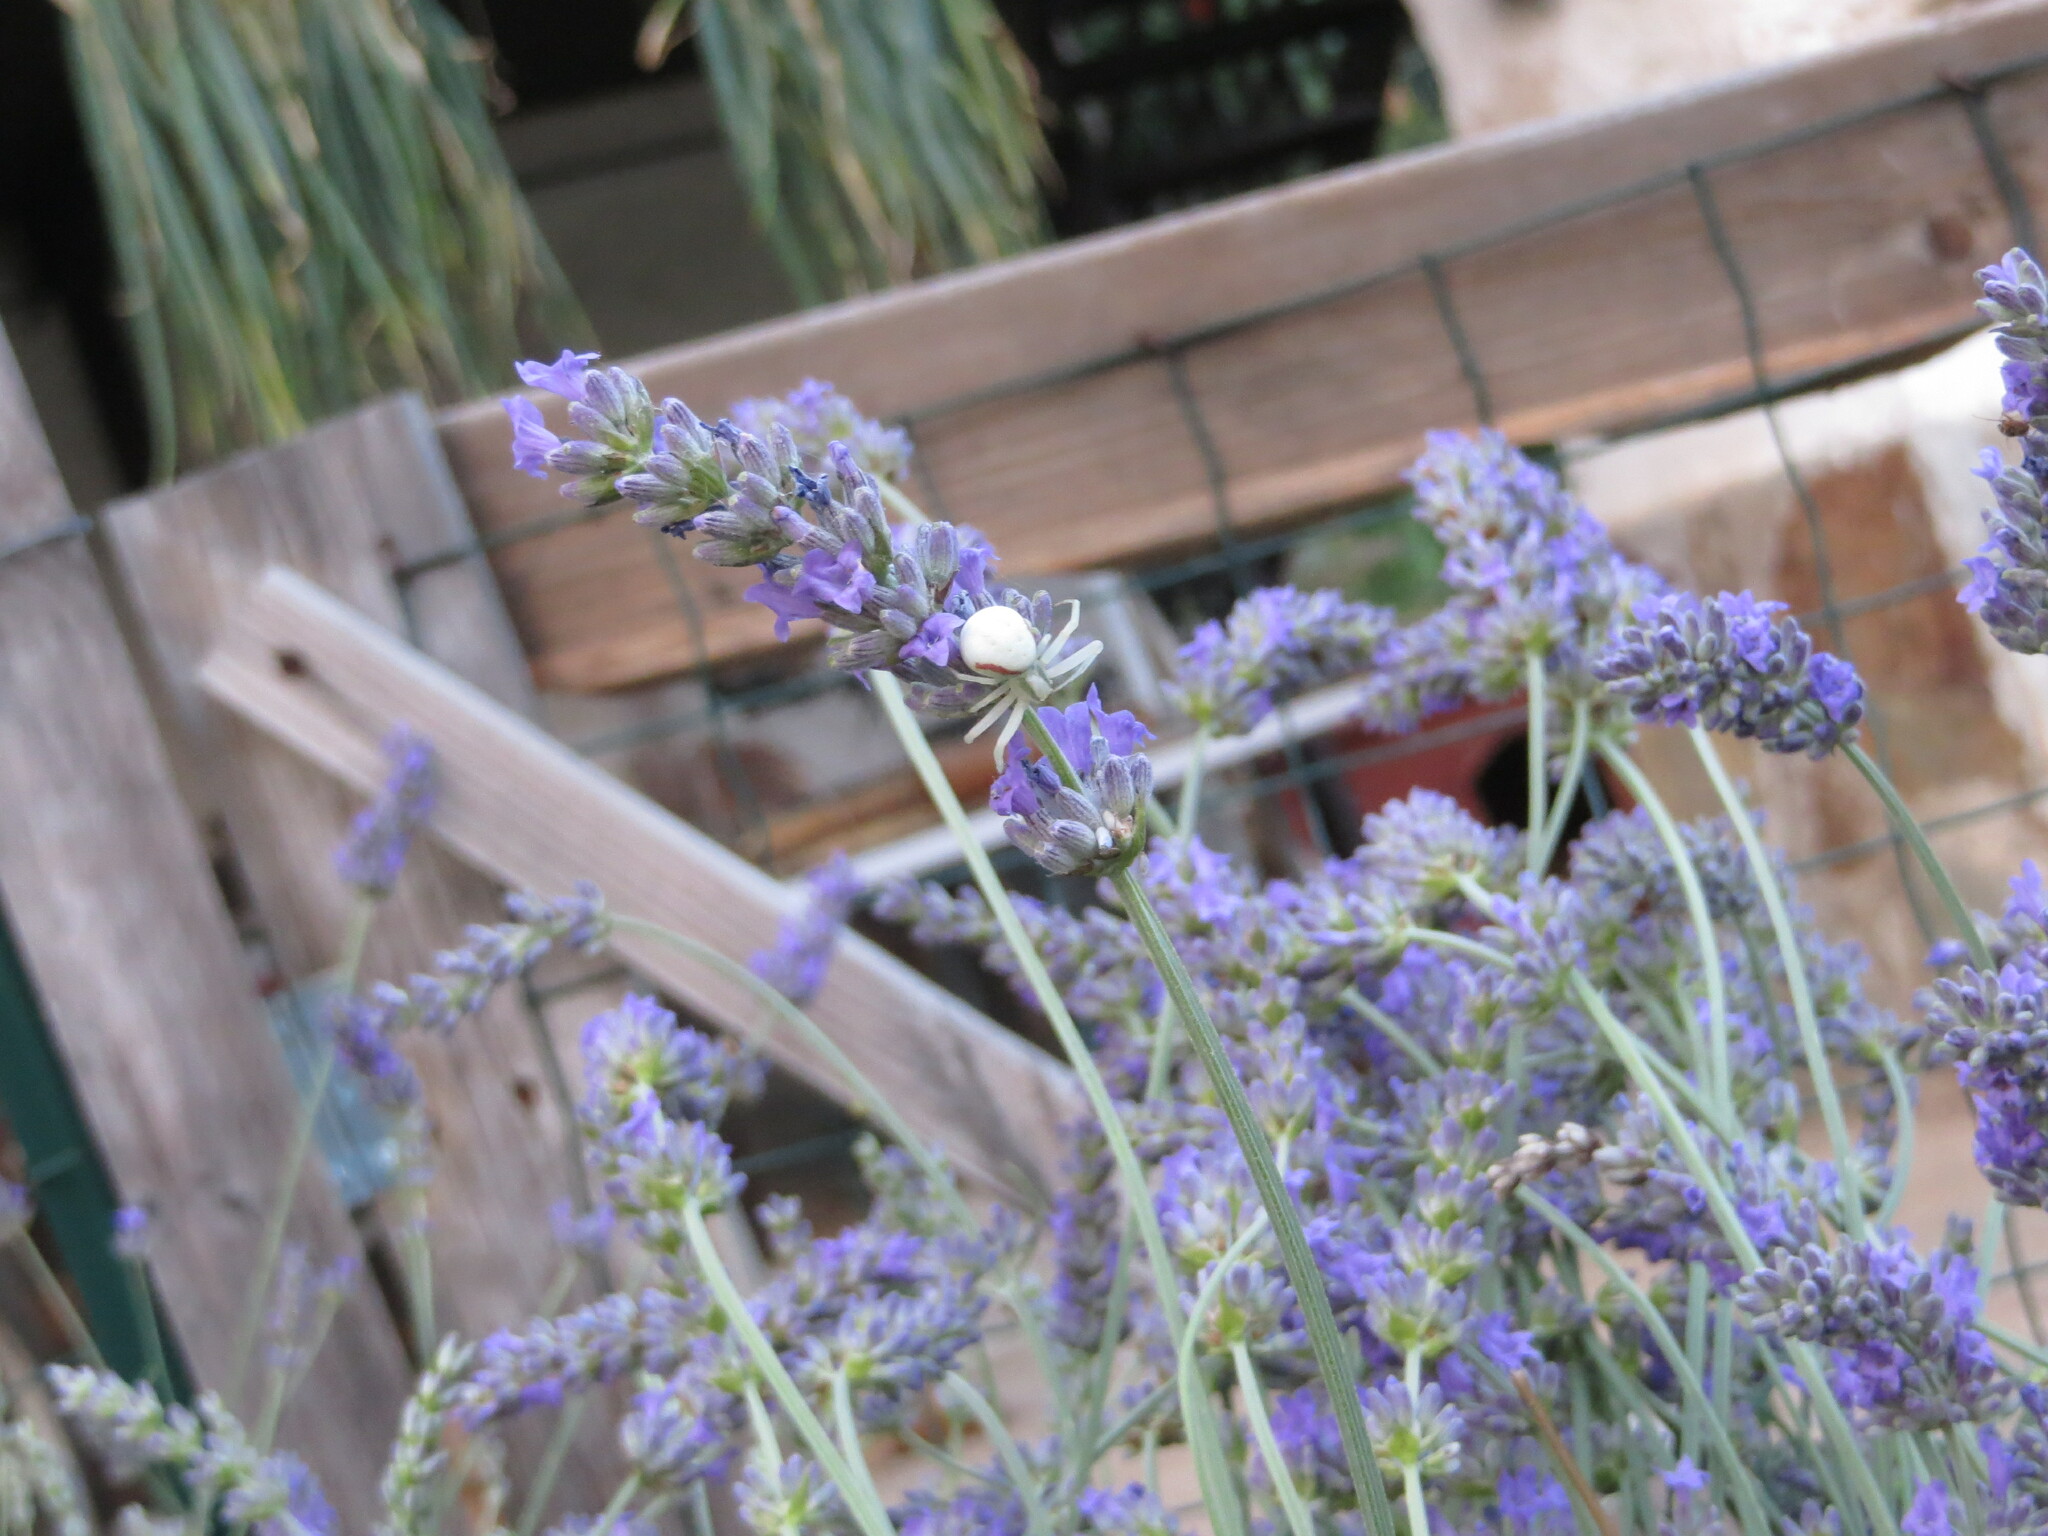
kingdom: Animalia
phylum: Arthropoda
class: Arachnida
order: Araneae
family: Thomisidae
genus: Misumena
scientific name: Misumena vatia
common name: Goldenrod crab spider
